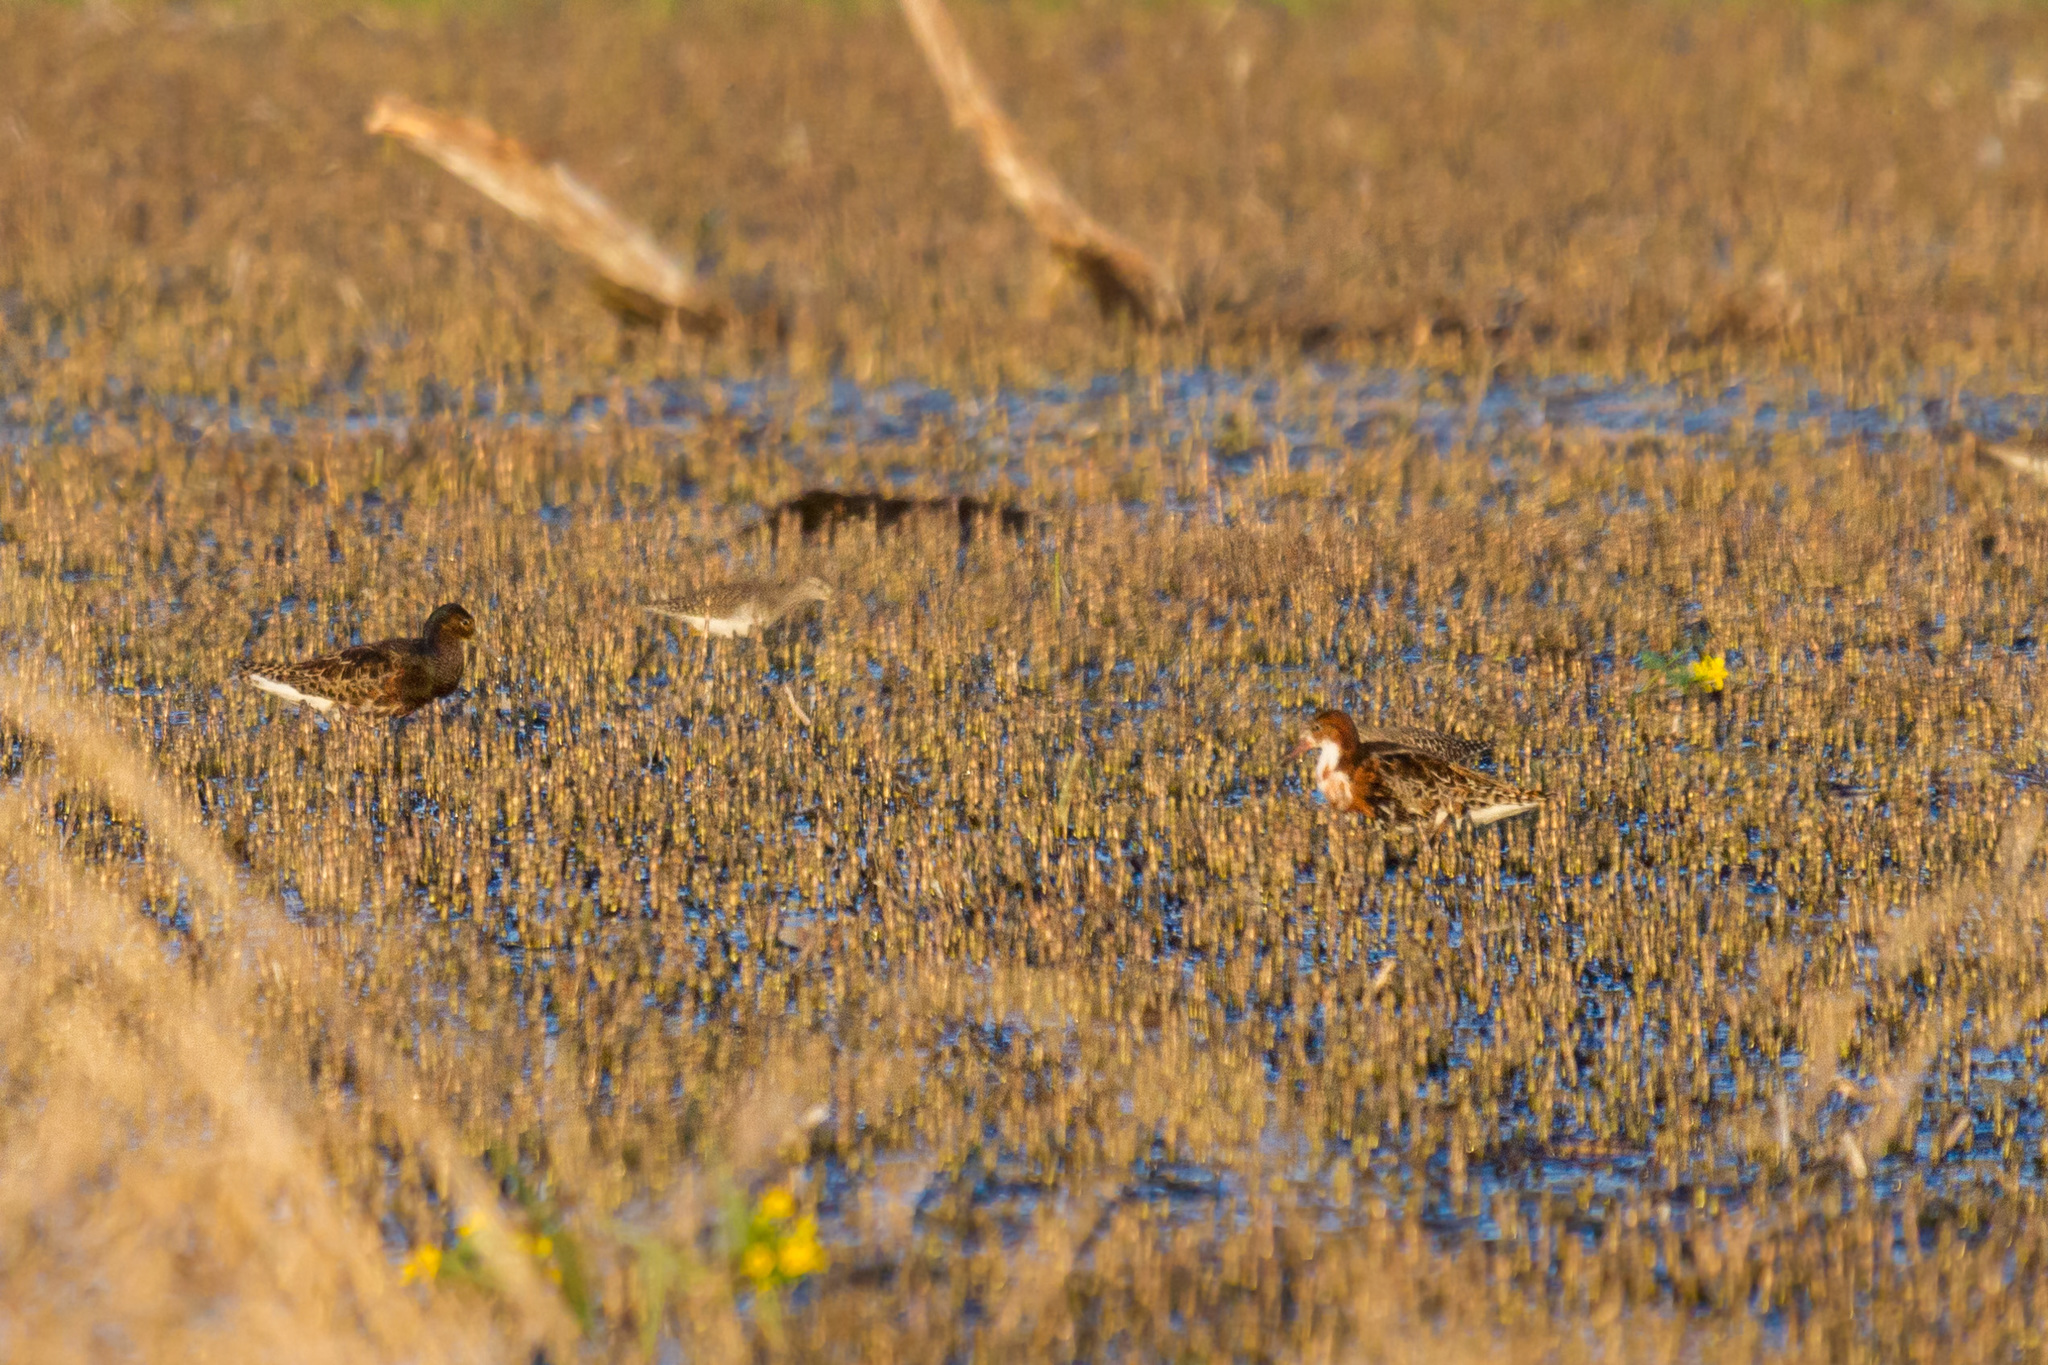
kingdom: Animalia
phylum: Chordata
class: Aves
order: Charadriiformes
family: Scolopacidae
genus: Calidris
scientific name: Calidris pugnax
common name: Ruff
